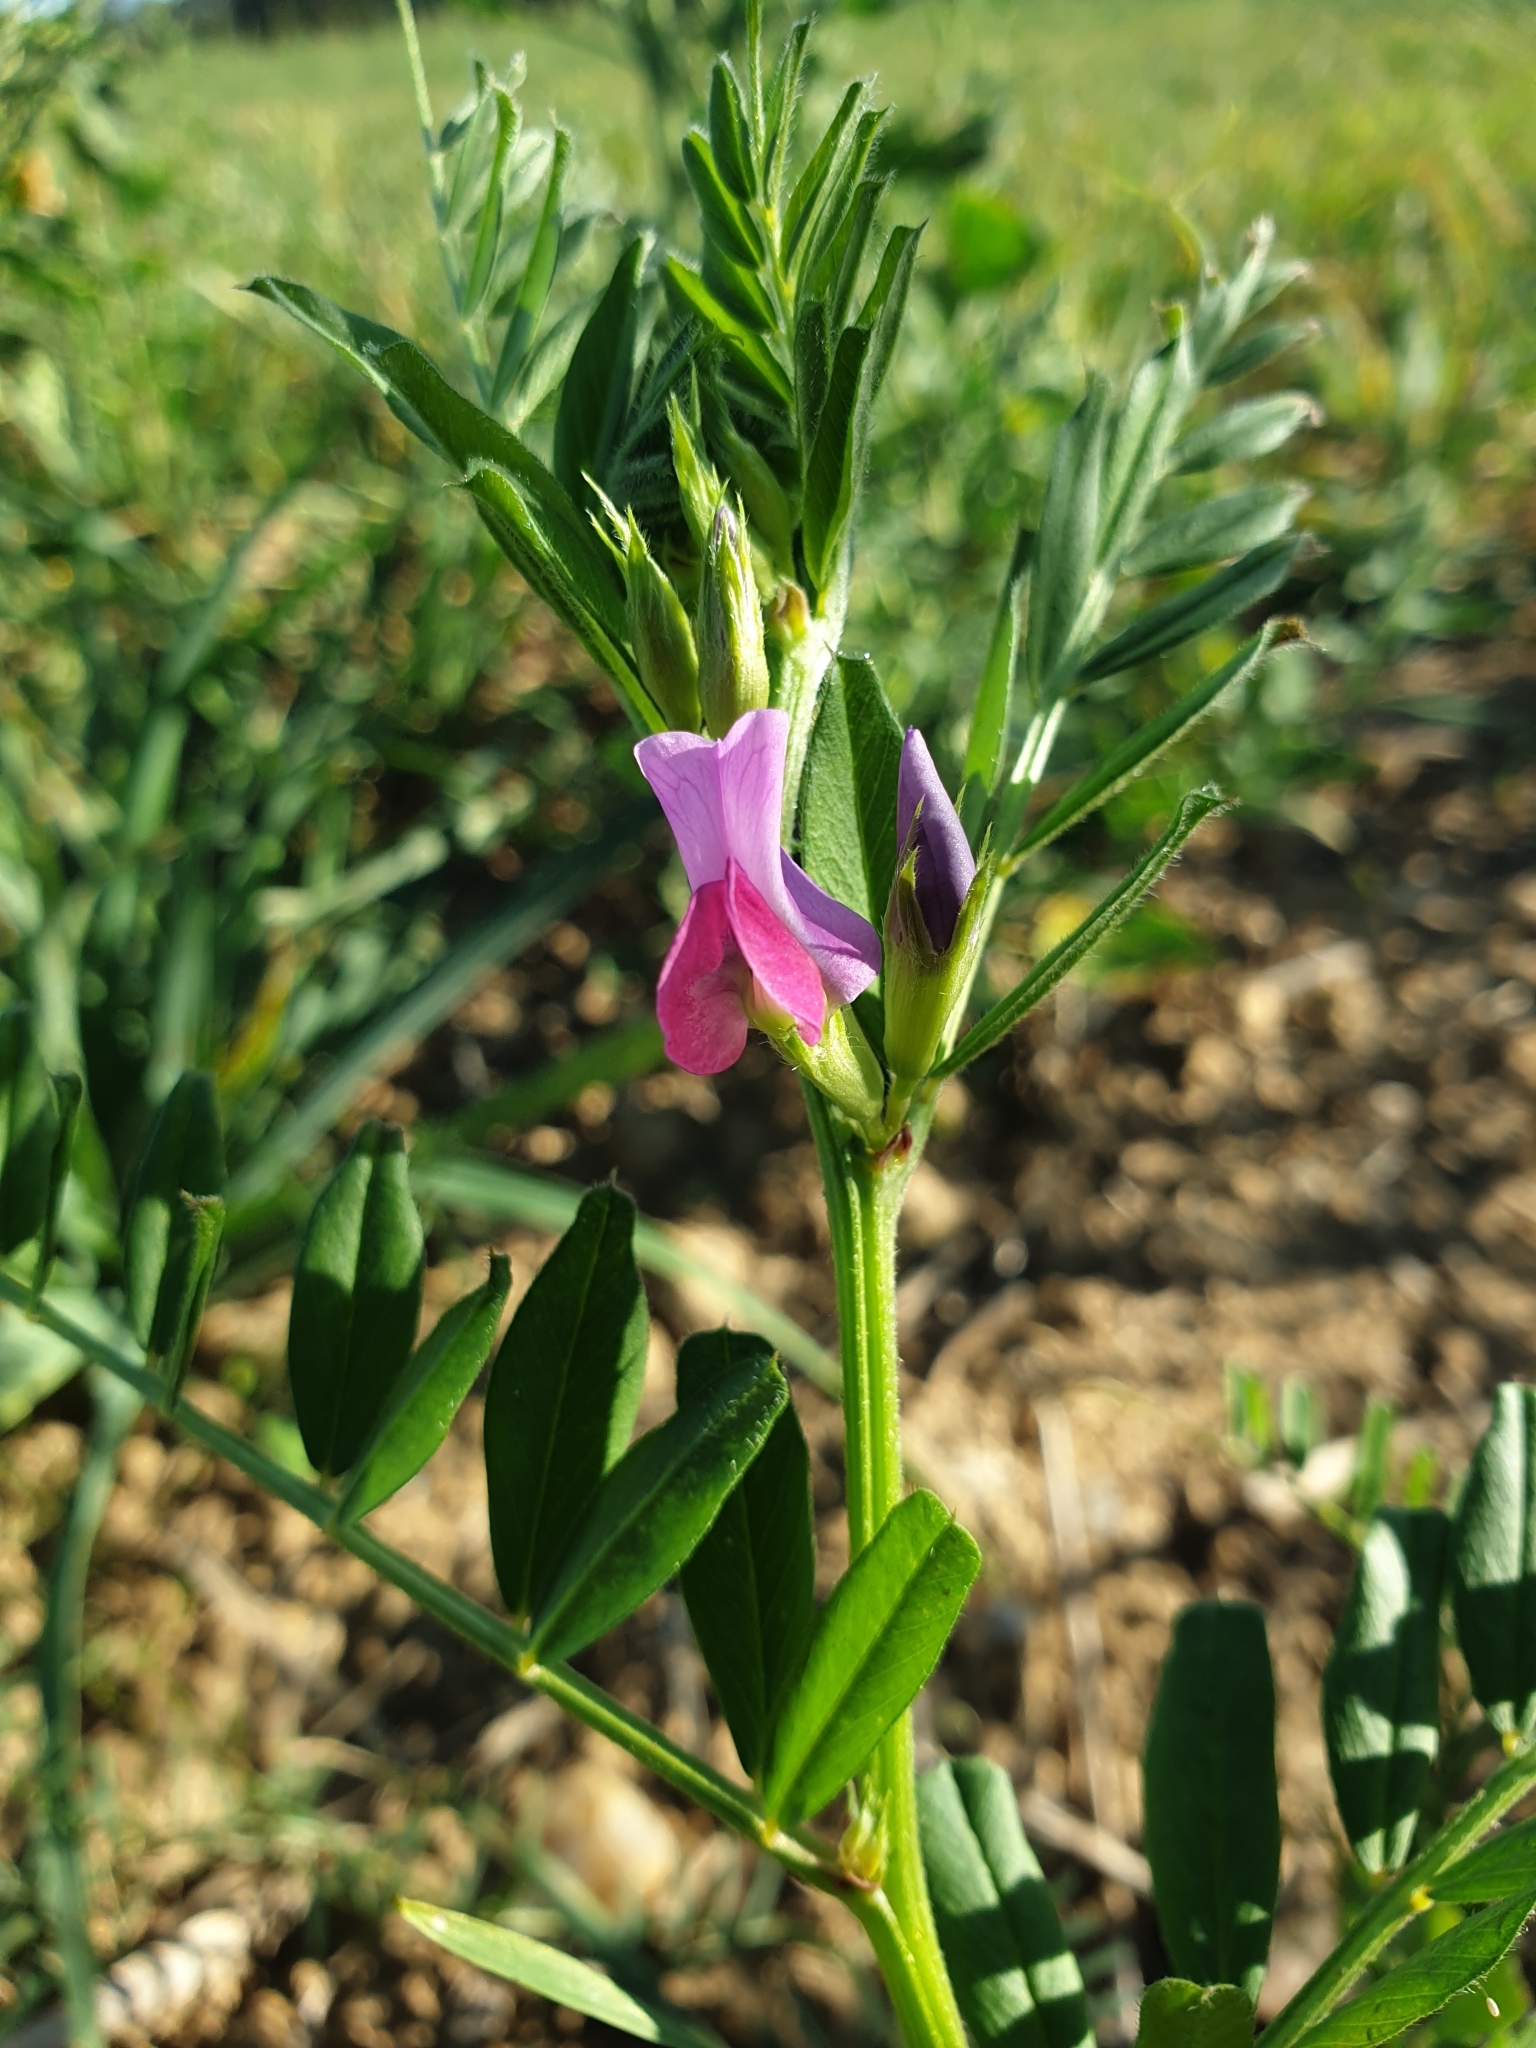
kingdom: Plantae
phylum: Tracheophyta
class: Magnoliopsida
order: Fabales
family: Fabaceae
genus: Vicia
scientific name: Vicia sativa
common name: Garden vetch
